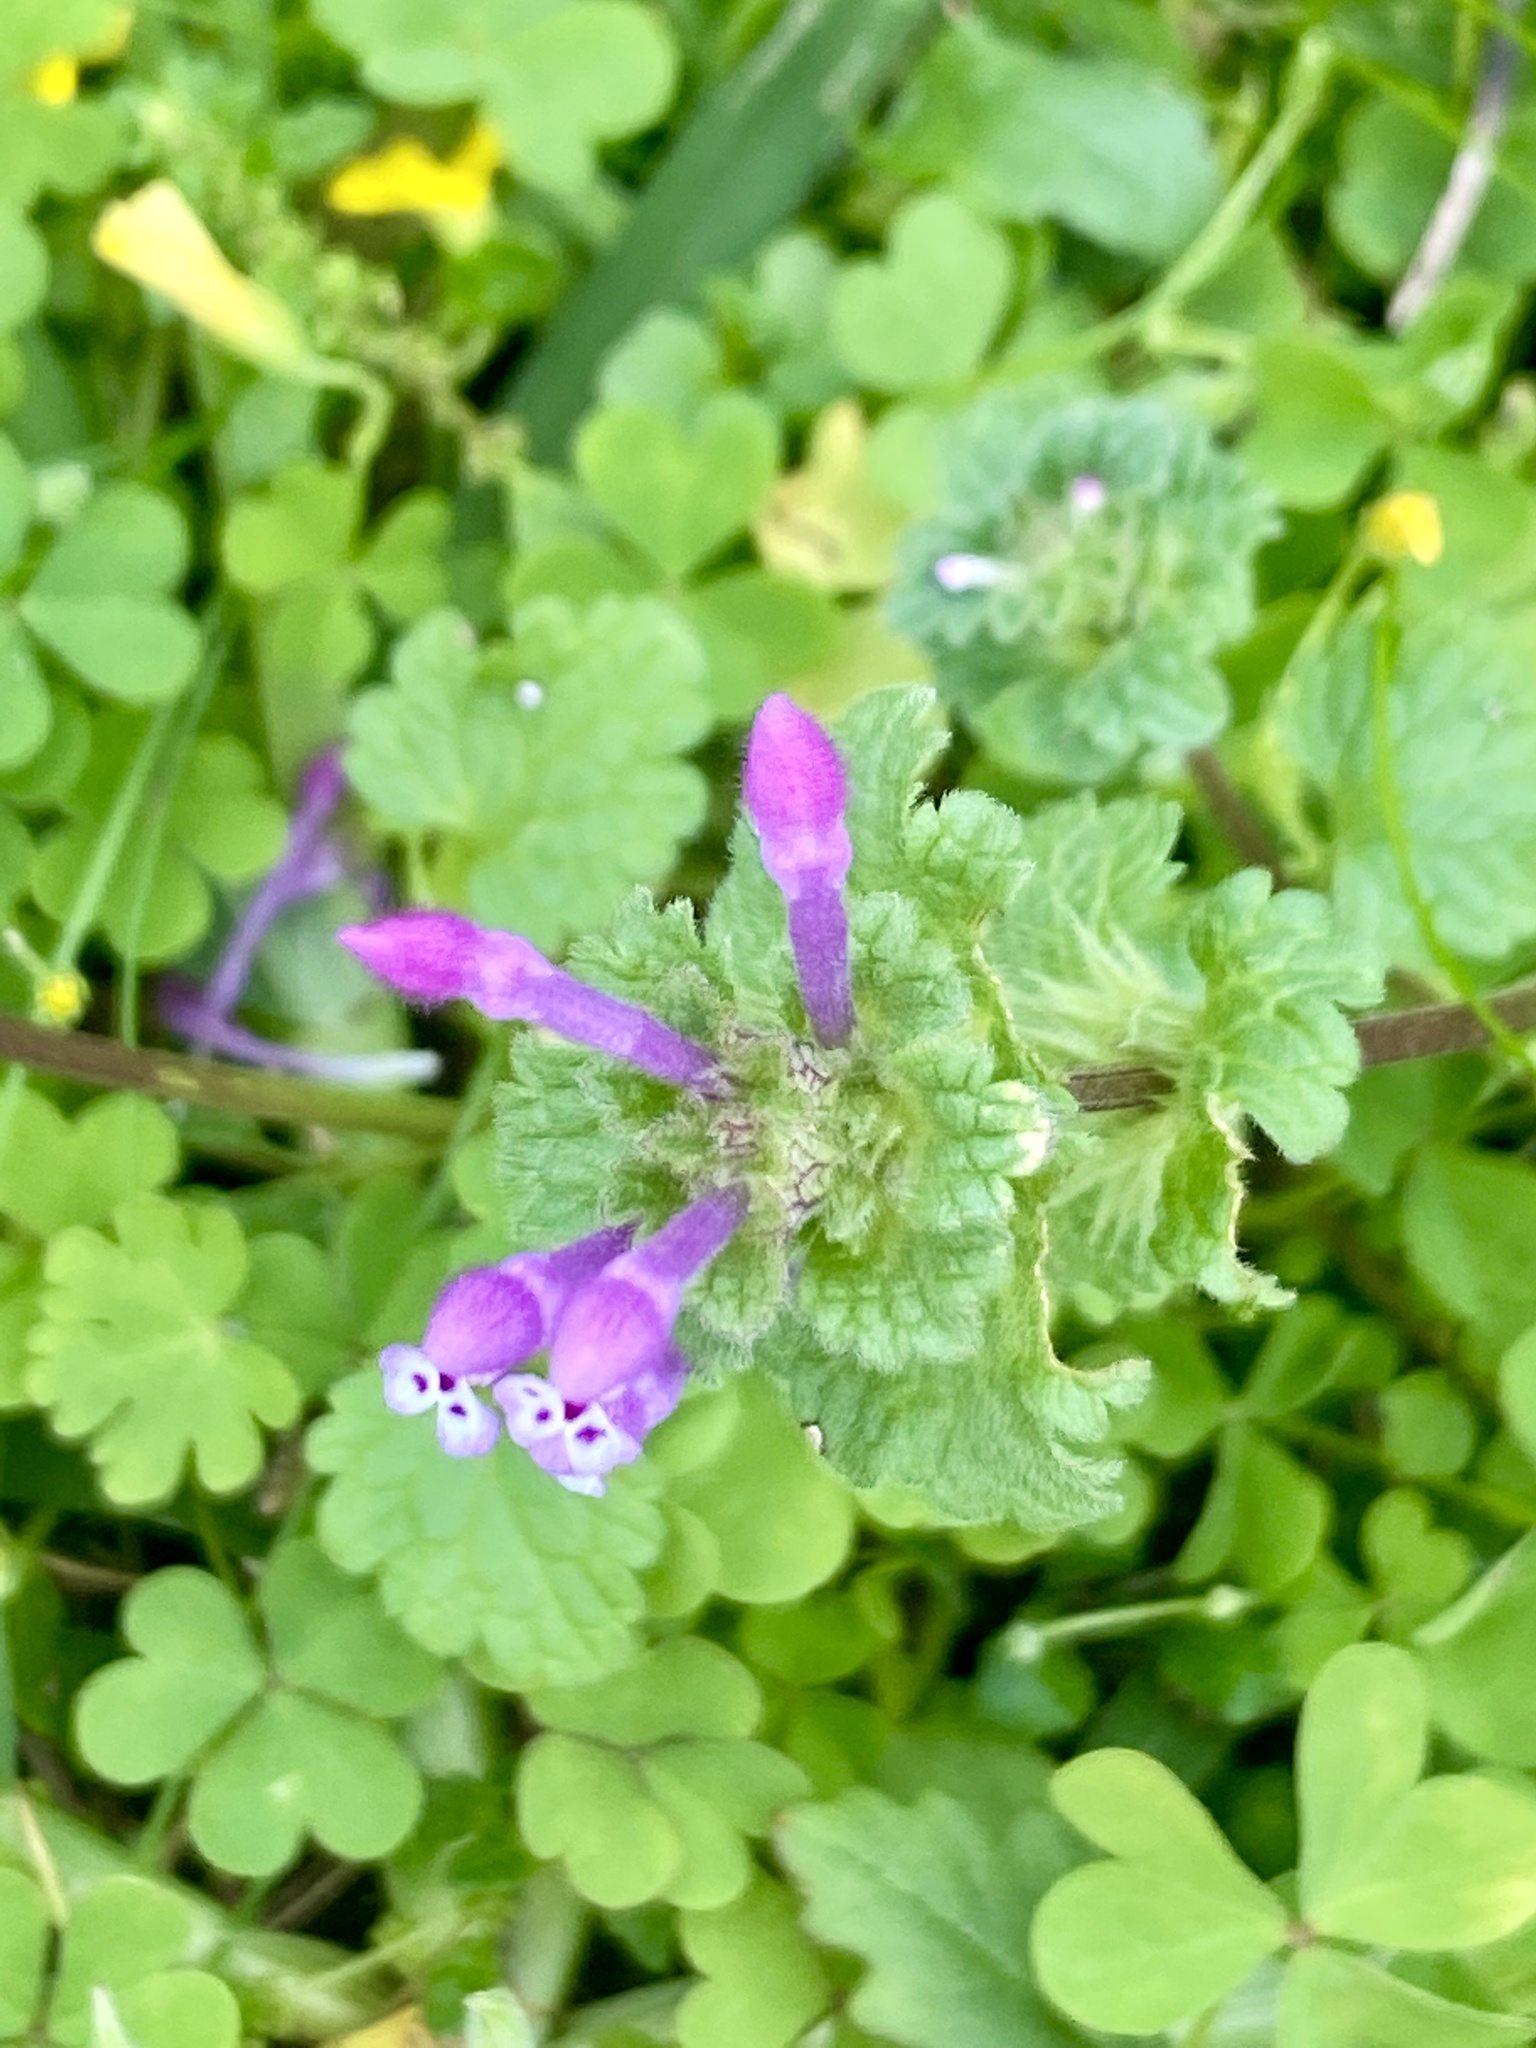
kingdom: Plantae
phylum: Tracheophyta
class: Magnoliopsida
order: Lamiales
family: Lamiaceae
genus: Lamium
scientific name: Lamium amplexicaule
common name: Henbit dead-nettle
